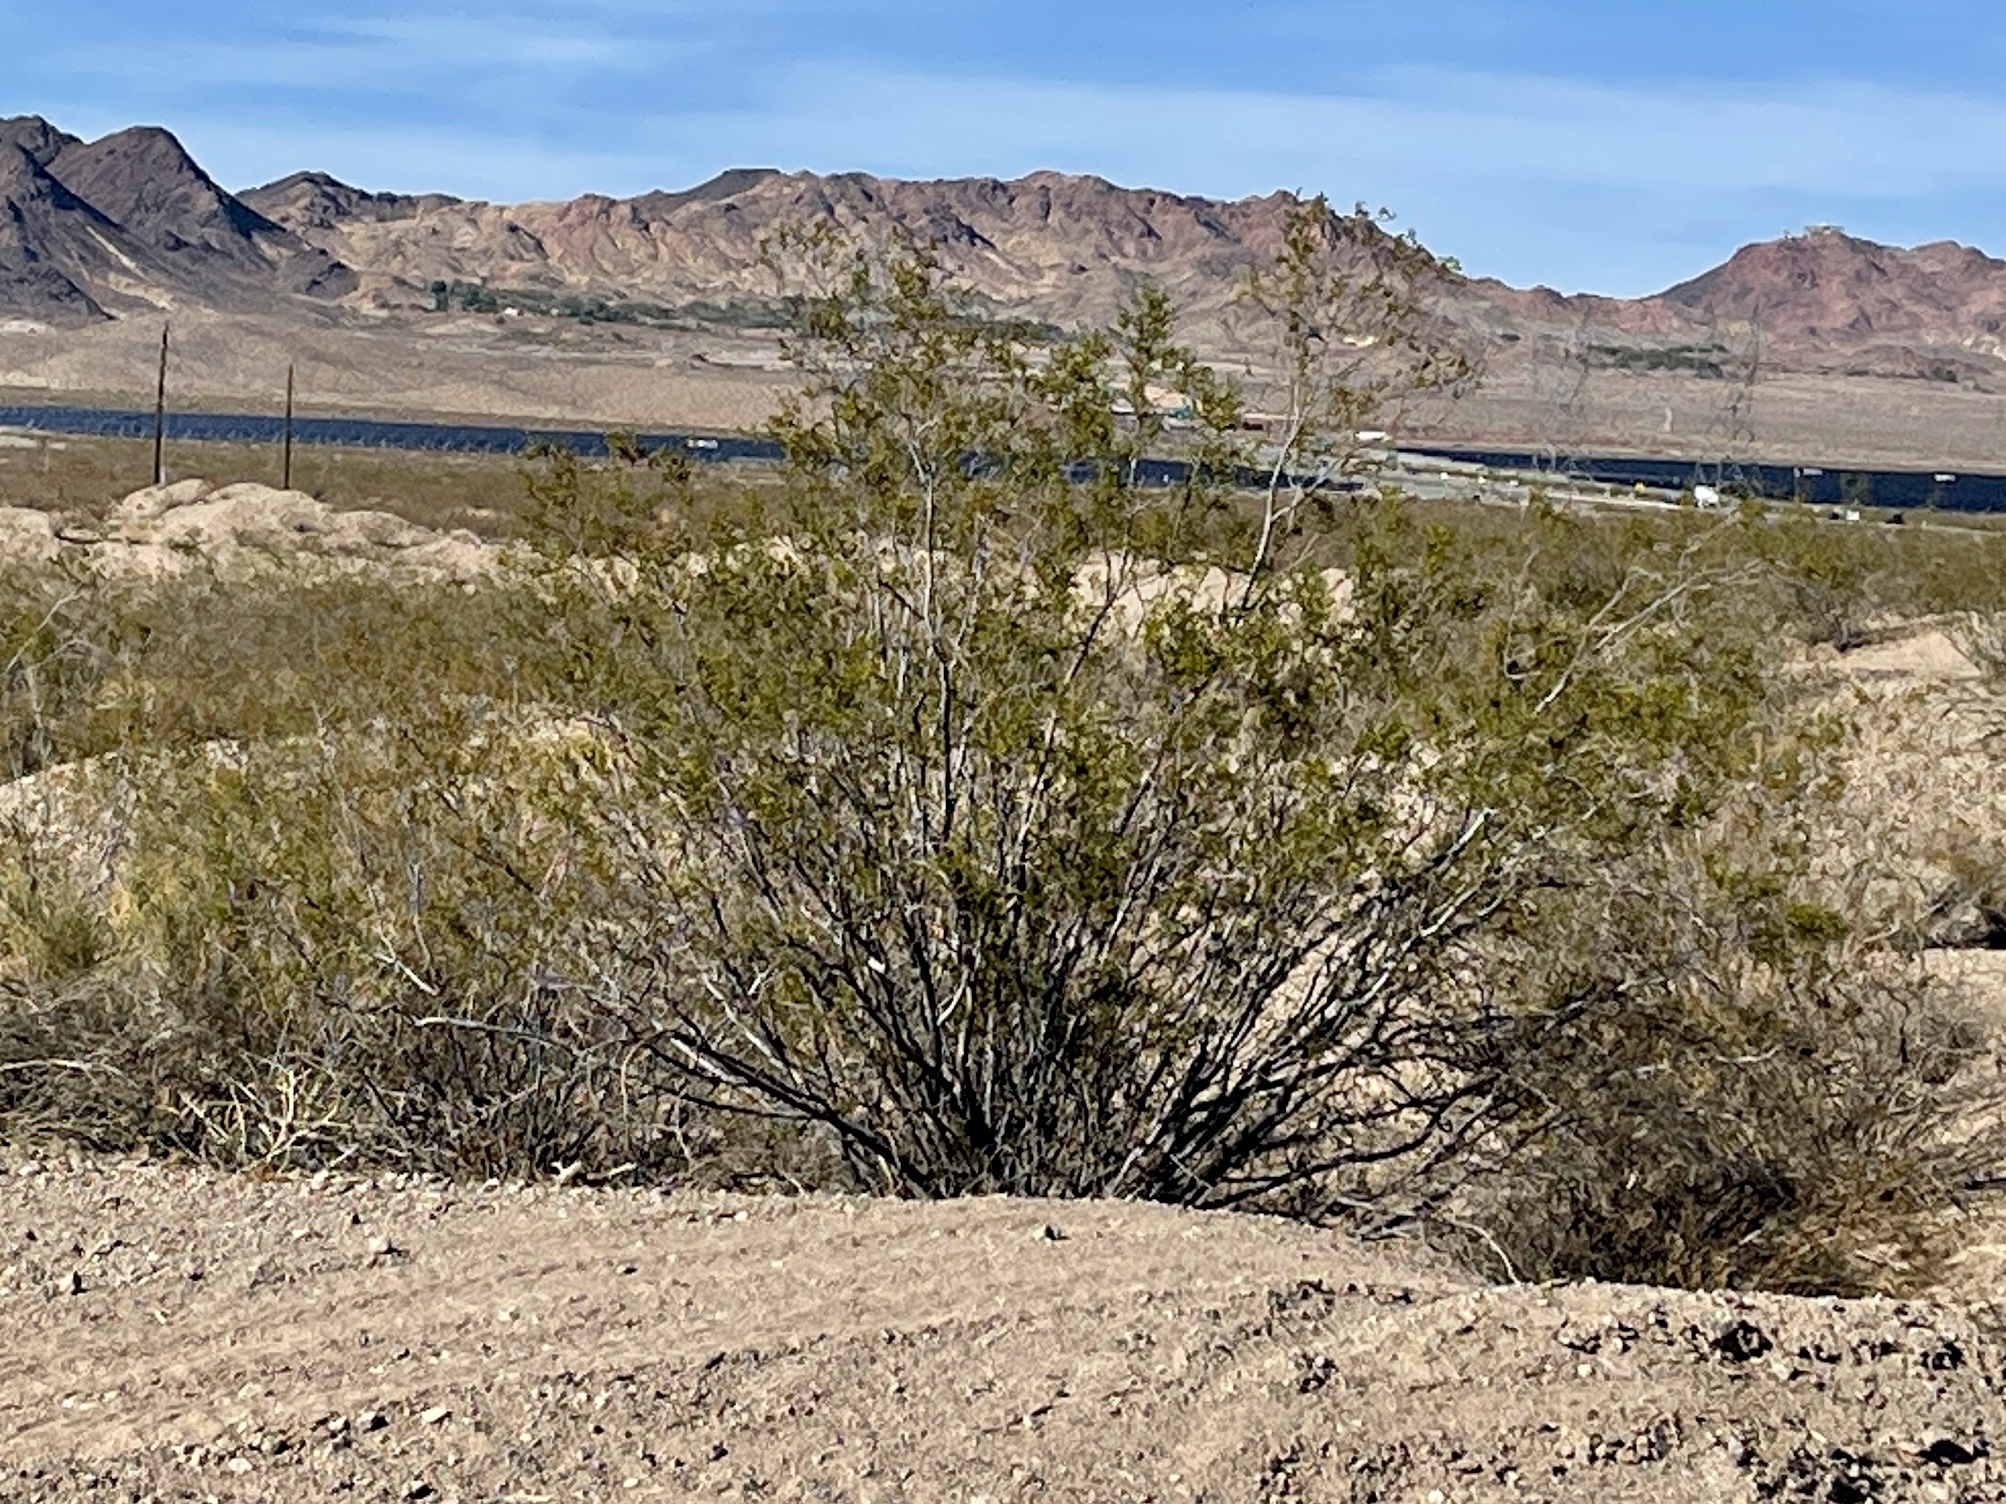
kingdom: Plantae
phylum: Tracheophyta
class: Magnoliopsida
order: Zygophyllales
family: Zygophyllaceae
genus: Larrea
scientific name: Larrea tridentata
